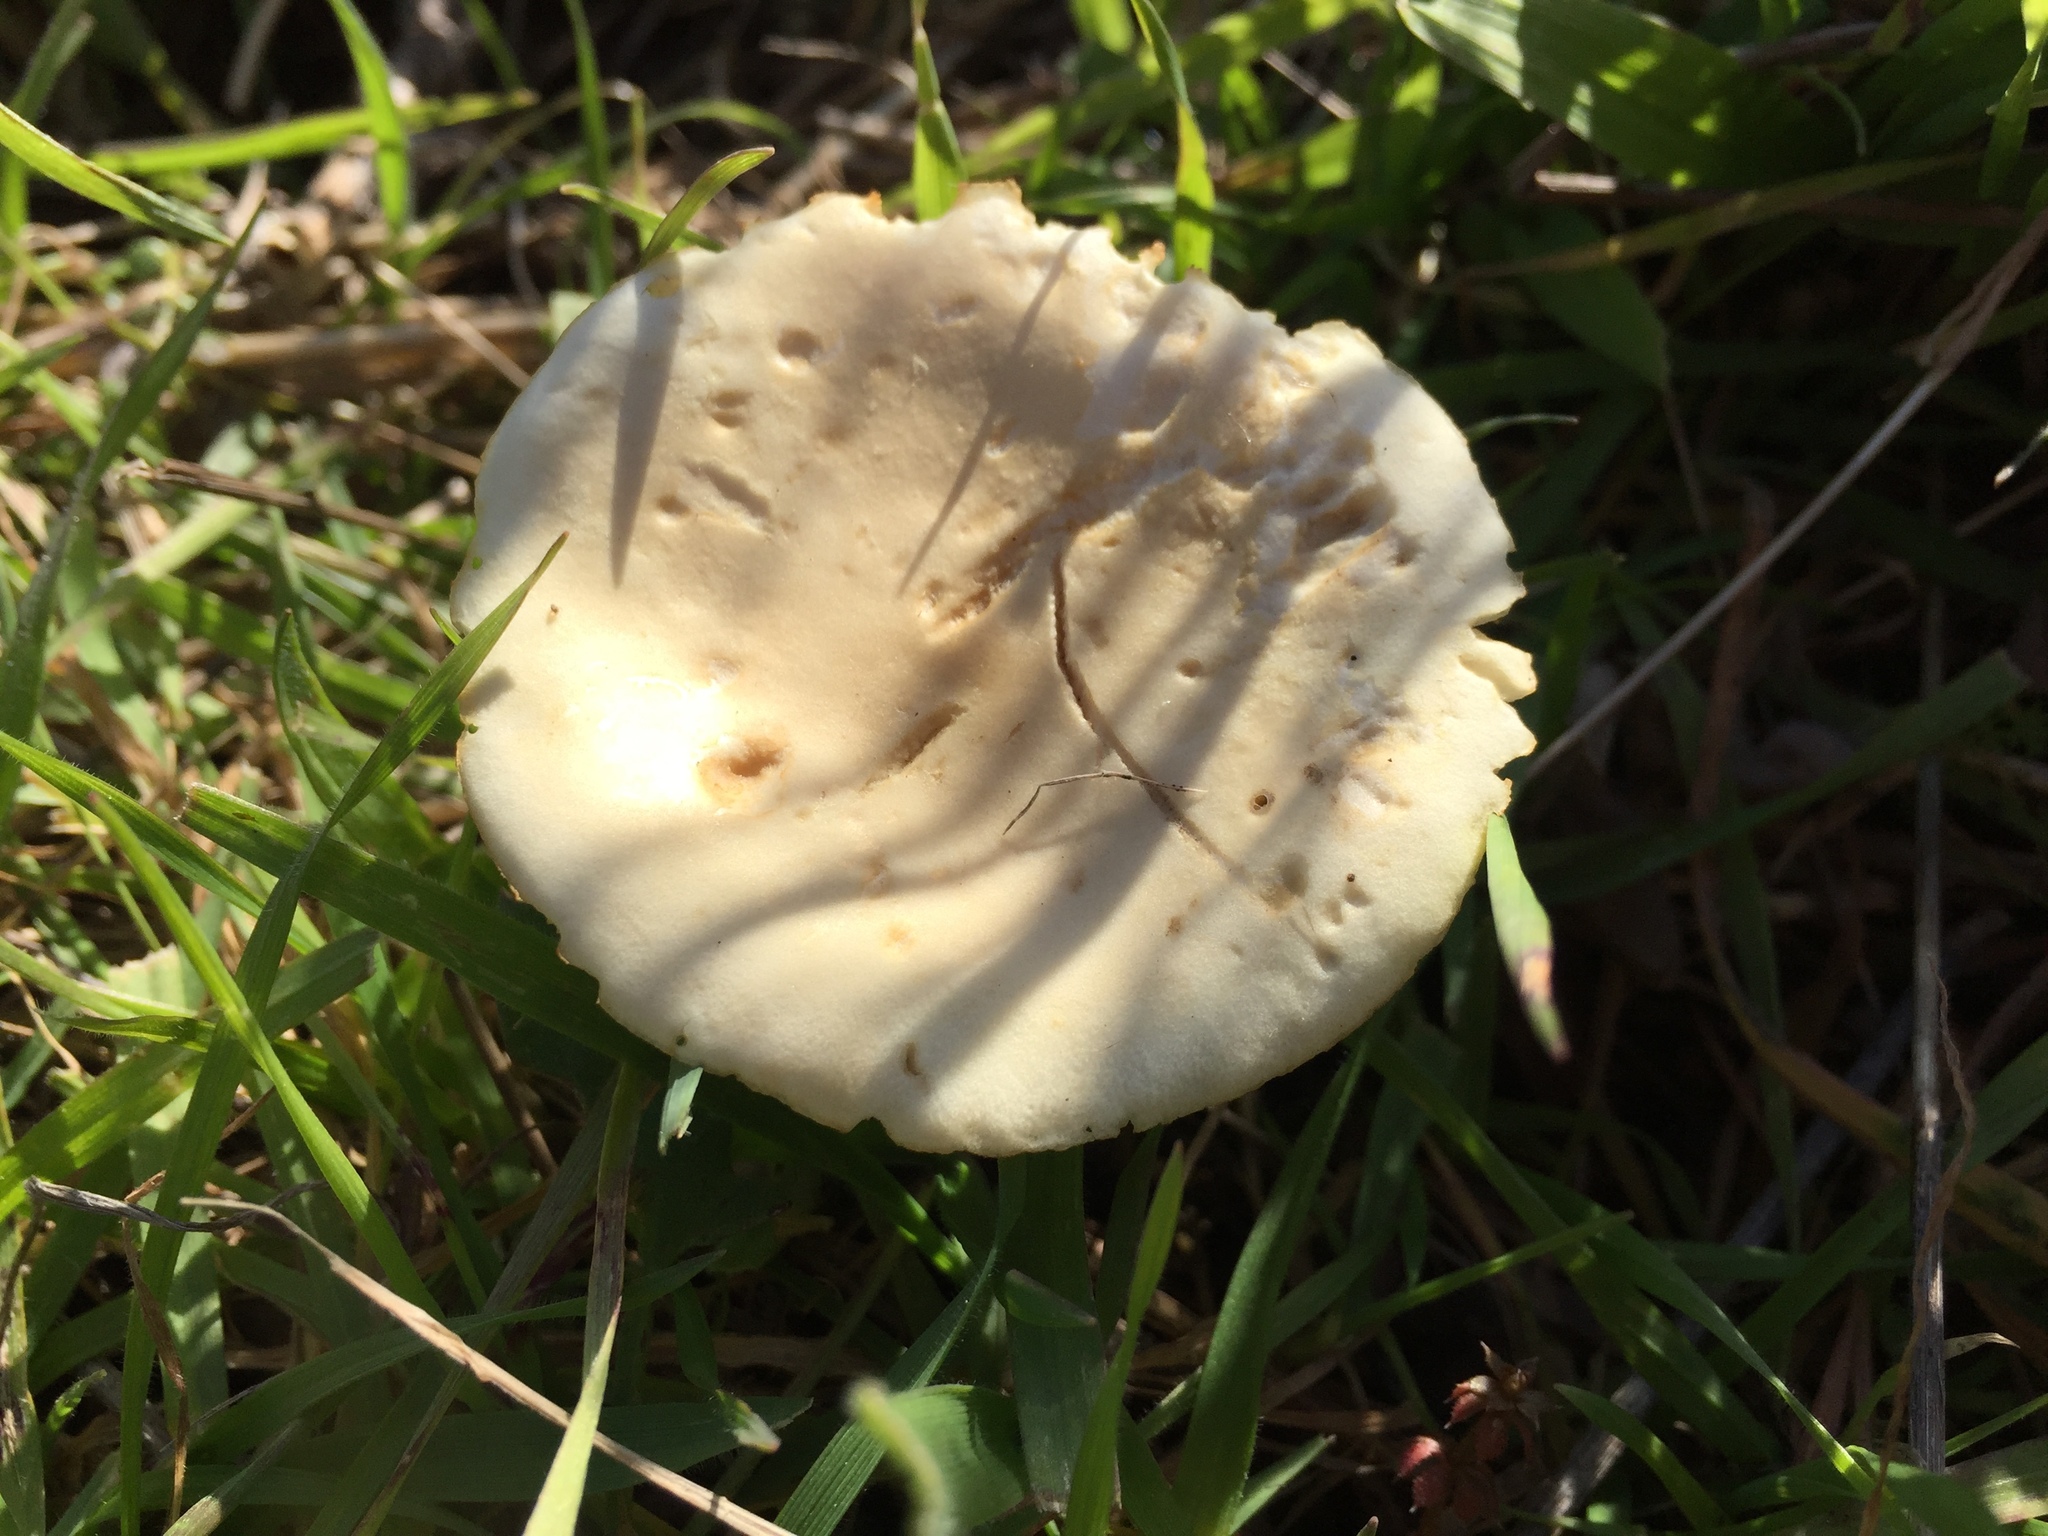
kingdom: Fungi
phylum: Basidiomycota
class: Agaricomycetes
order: Agaricales
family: Strophariaceae
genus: Leratiomyces
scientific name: Leratiomyces percevalii
